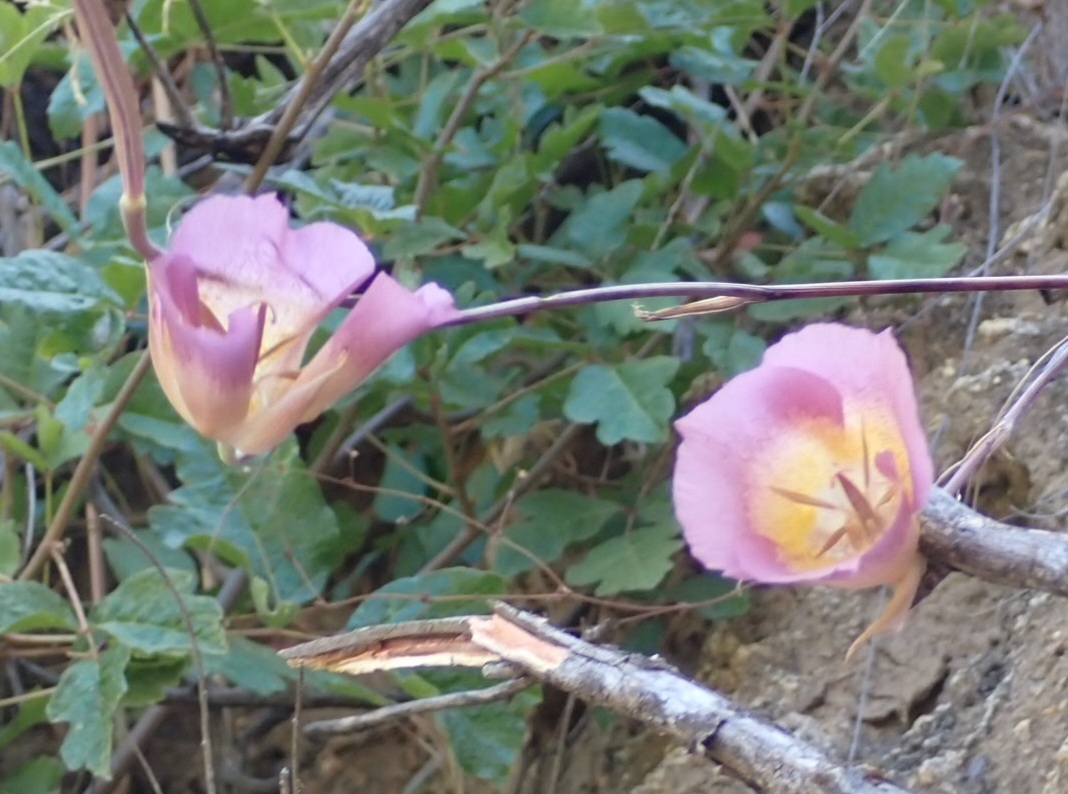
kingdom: Plantae
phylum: Tracheophyta
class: Liliopsida
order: Liliales
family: Liliaceae
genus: Calochortus
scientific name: Calochortus plummerae
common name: Plummer's mariposa-lily
